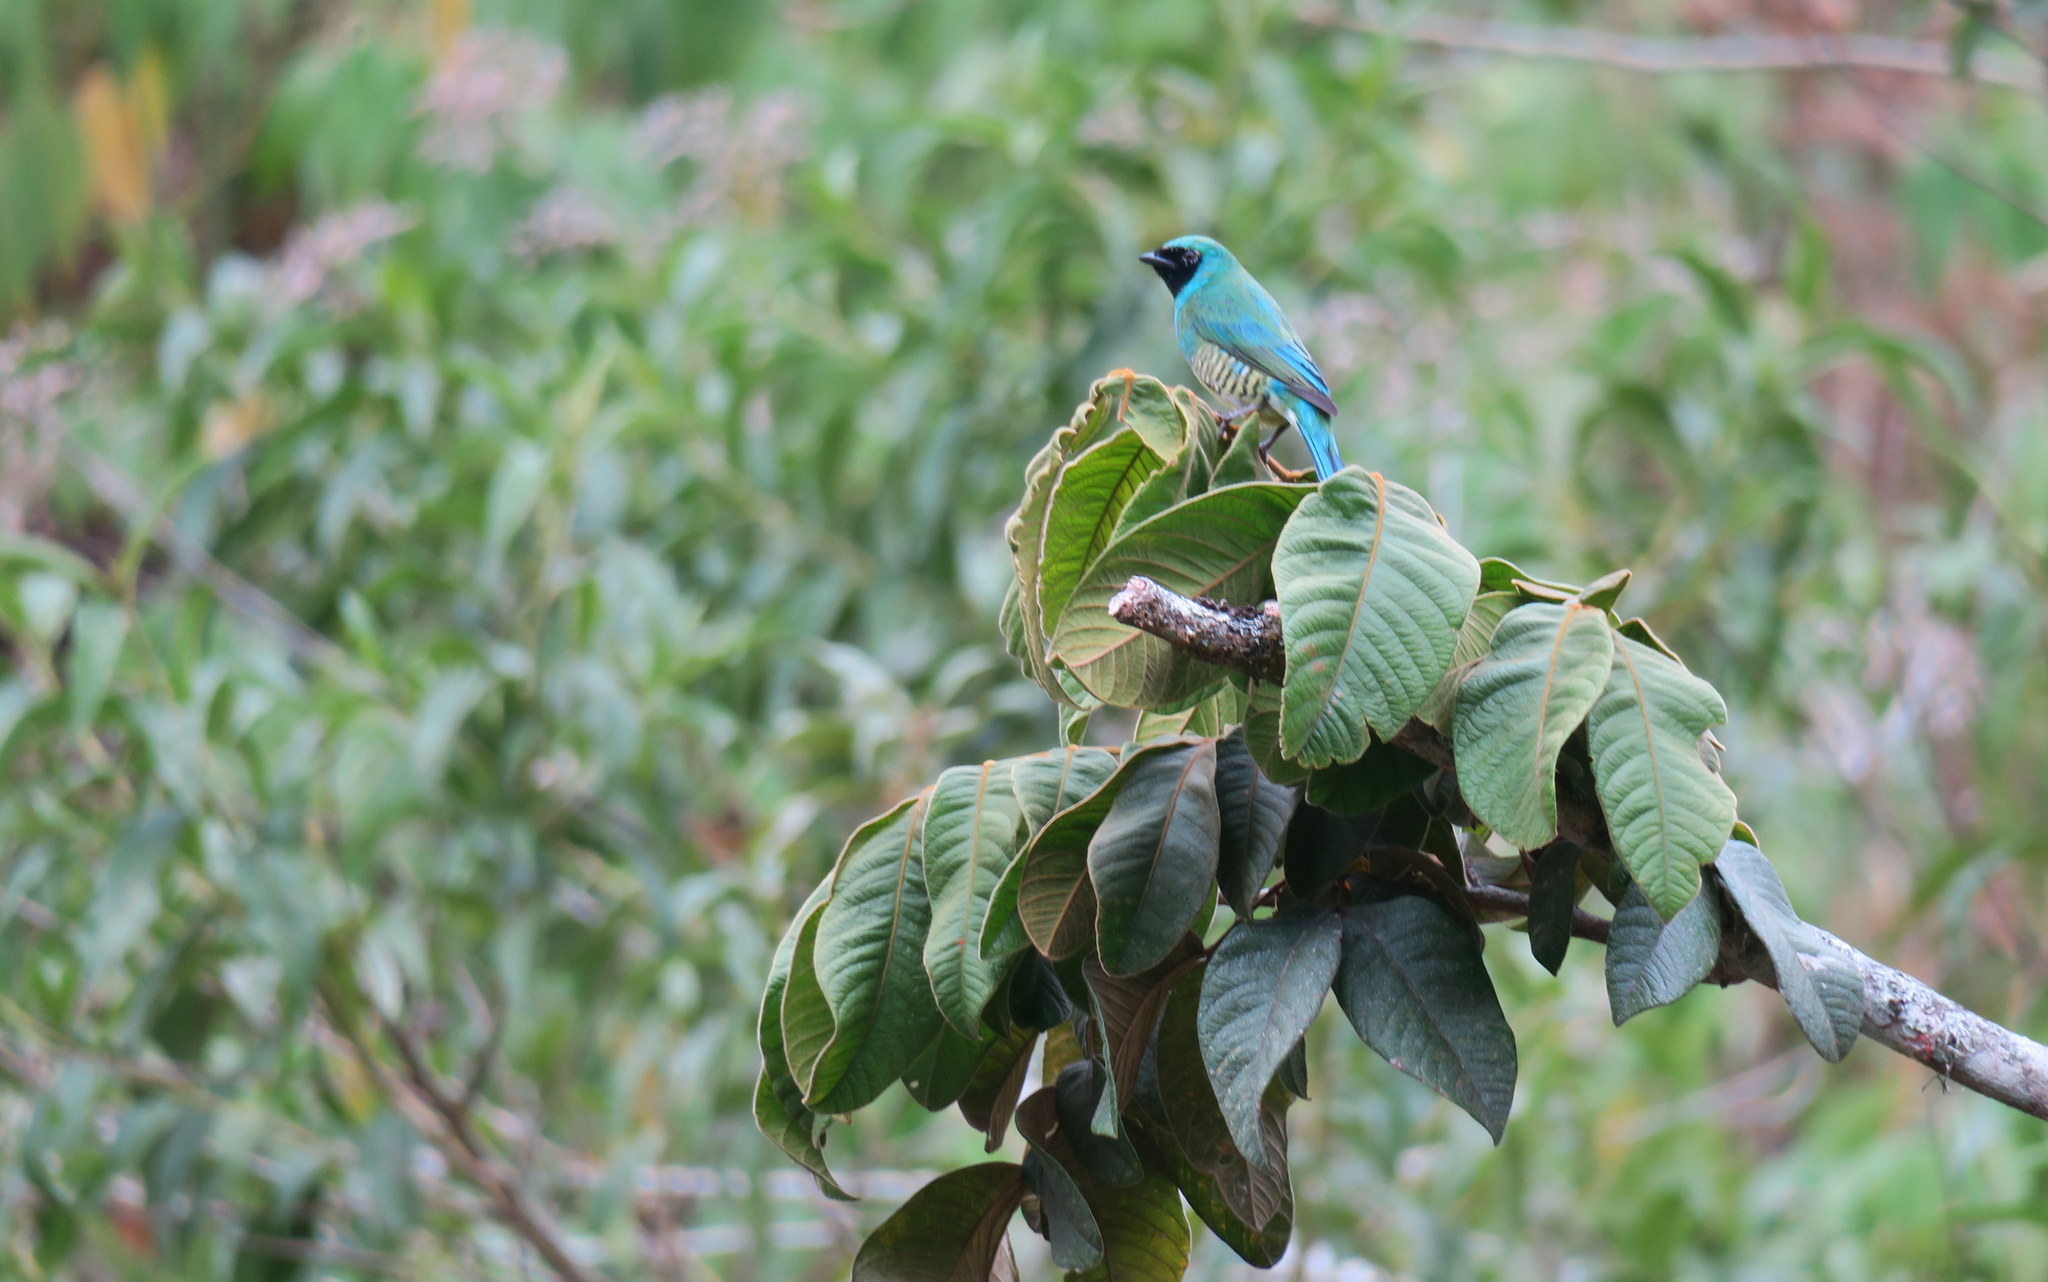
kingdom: Animalia
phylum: Chordata
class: Aves
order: Passeriformes
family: Thraupidae
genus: Tersina
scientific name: Tersina viridis
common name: Swallow tanager
